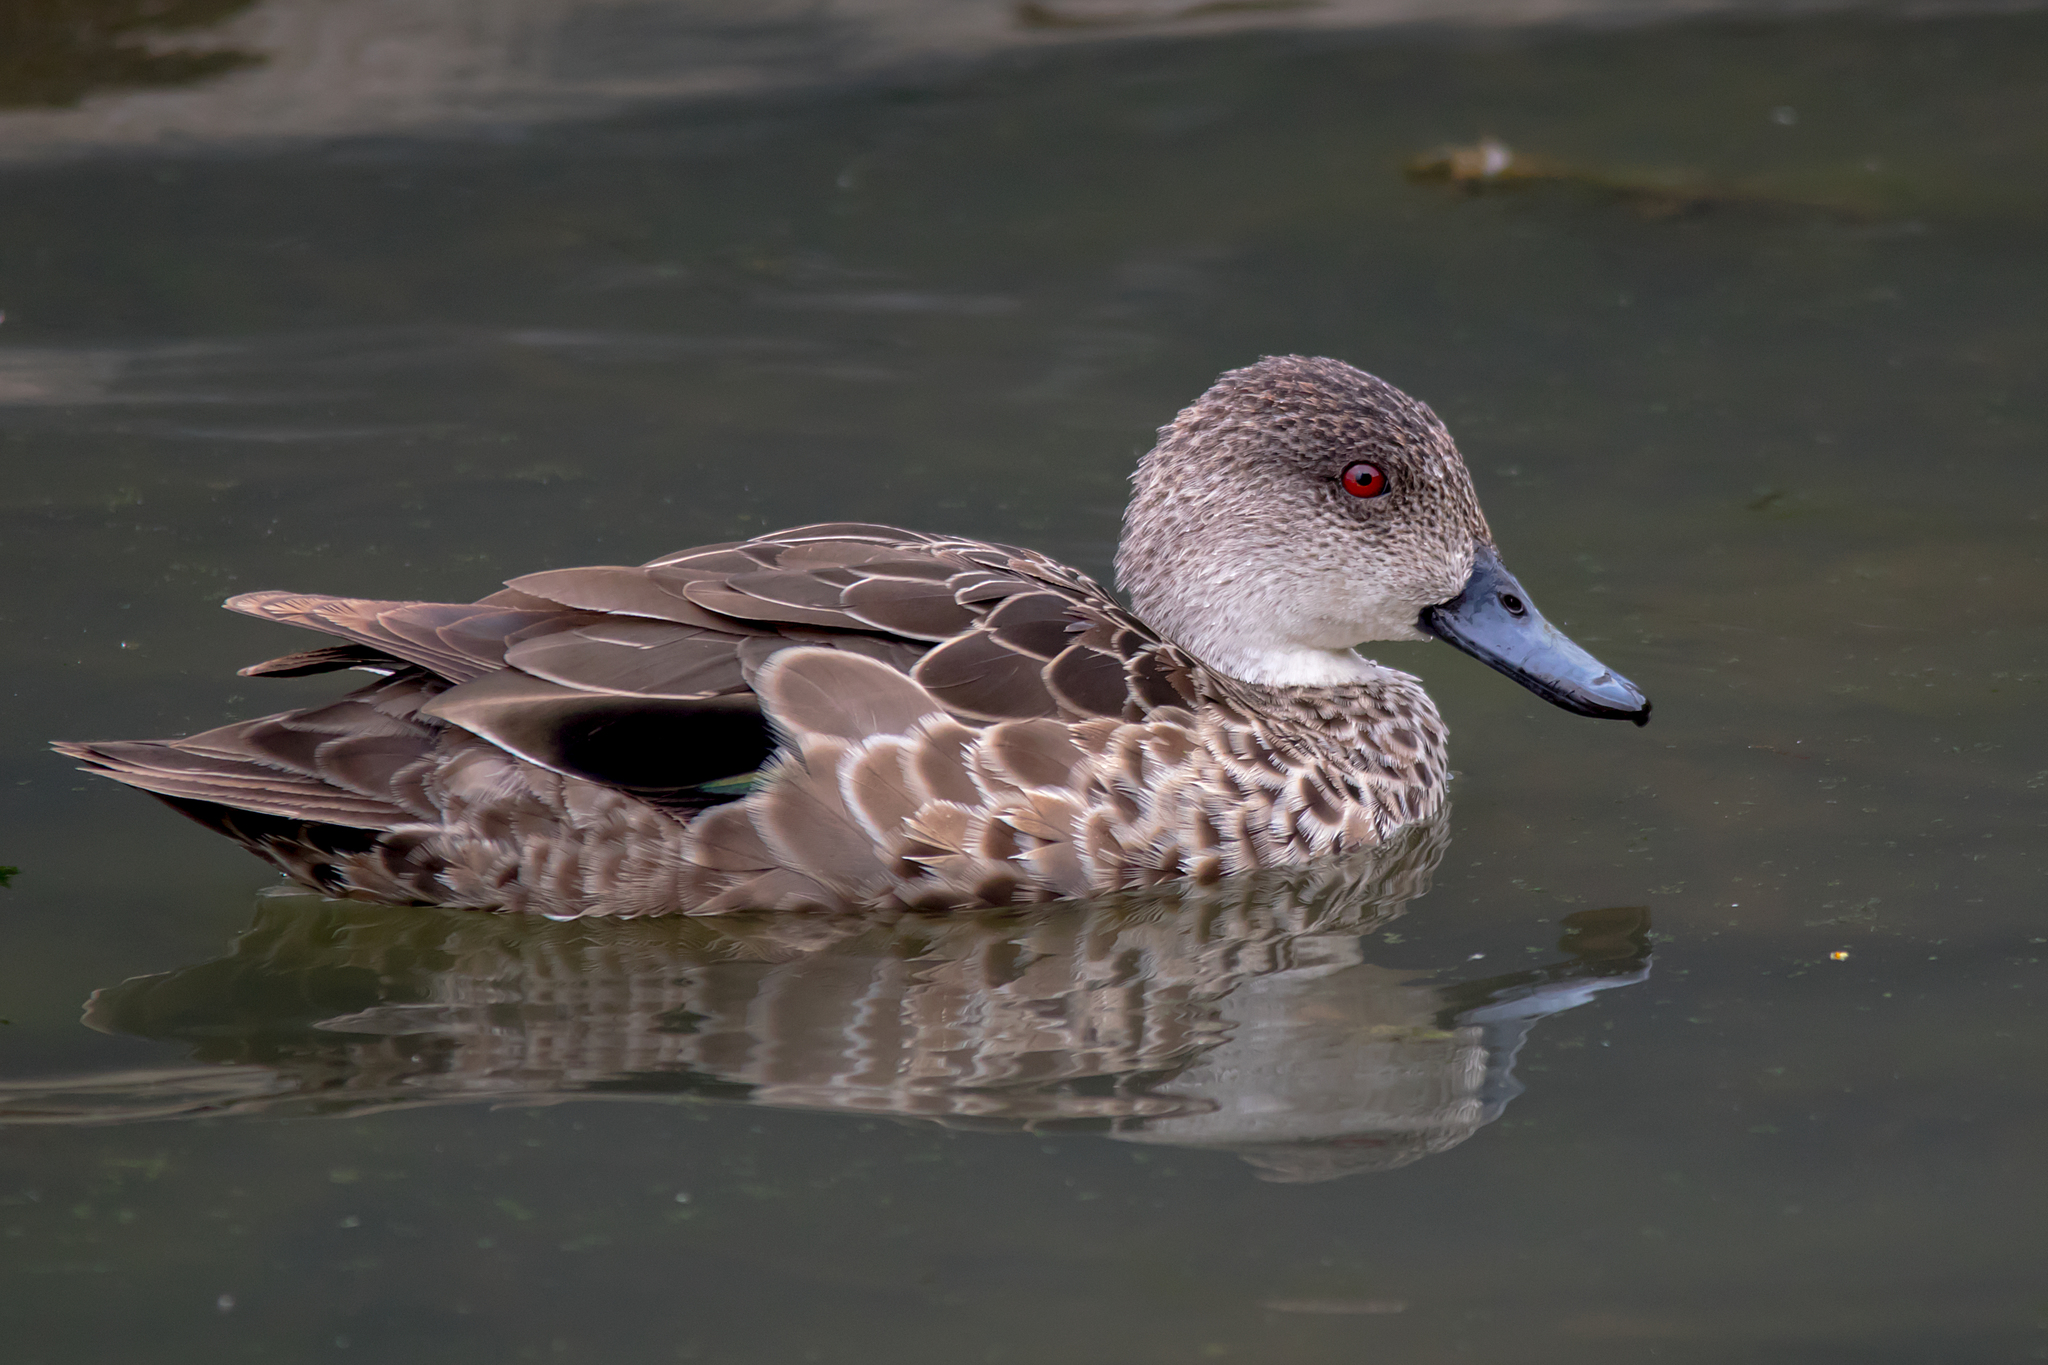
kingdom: Animalia
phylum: Chordata
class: Aves
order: Anseriformes
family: Anatidae
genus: Anas
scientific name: Anas gracilis
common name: Grey teal
